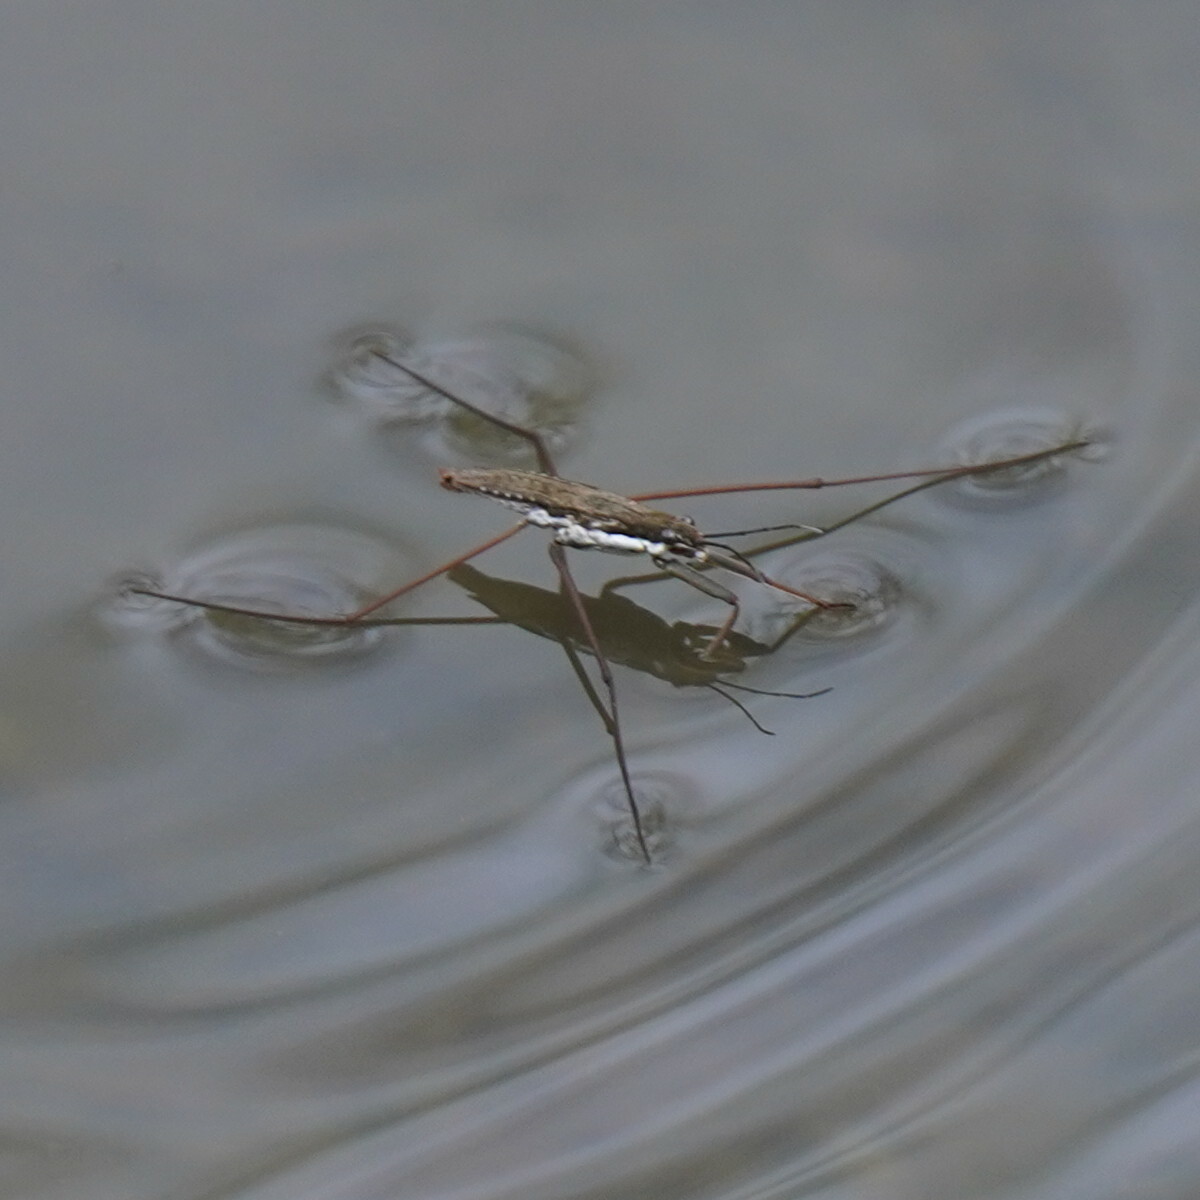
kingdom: Animalia
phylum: Arthropoda
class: Insecta
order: Hemiptera
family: Gerridae
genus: Aquarius
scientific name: Aquarius remigis
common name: Common water strider
